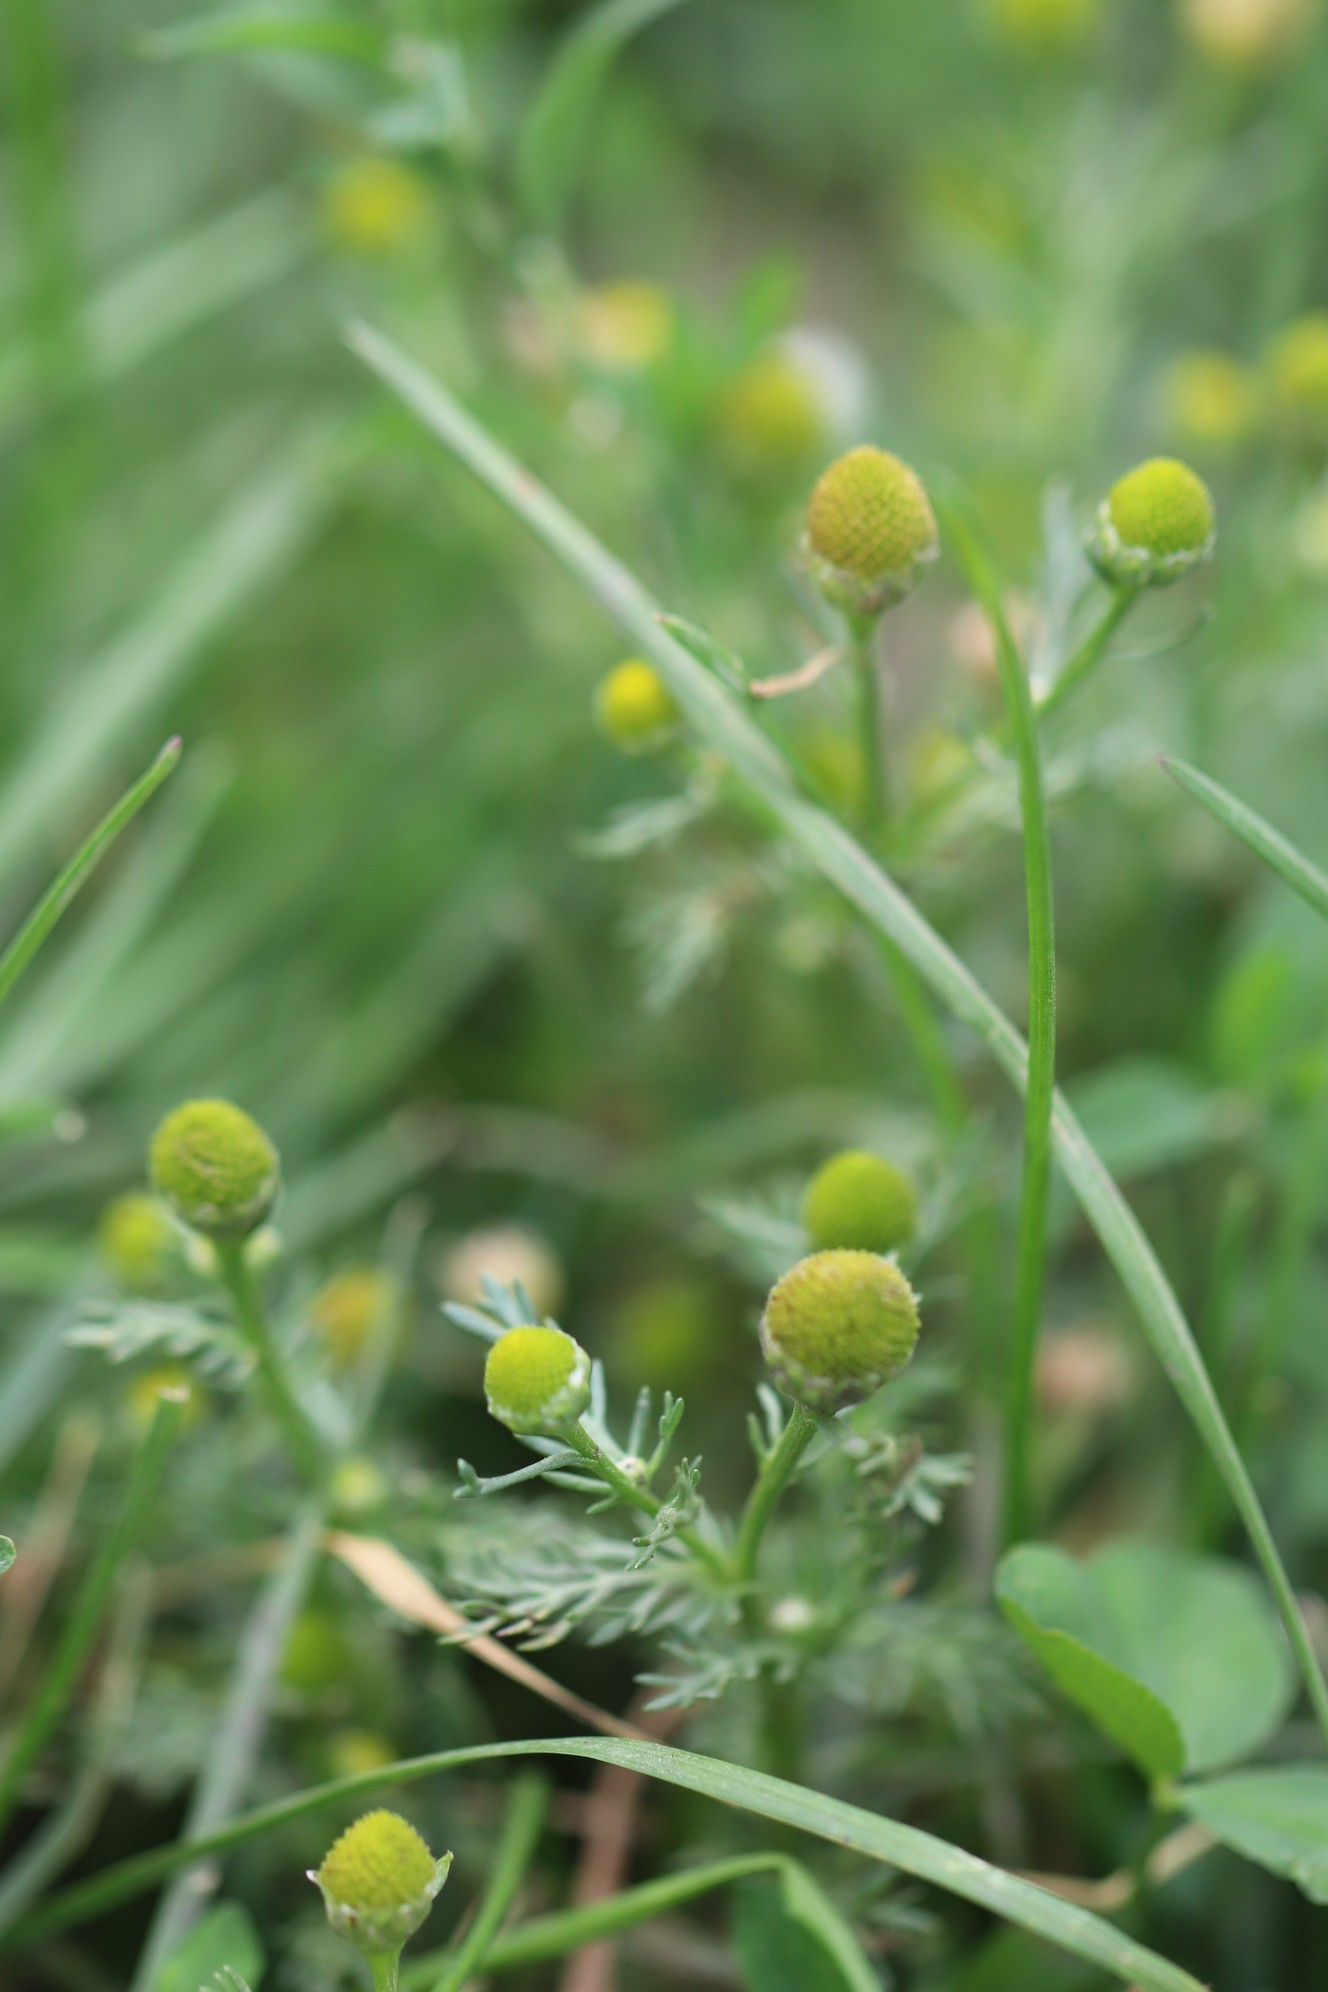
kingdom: Plantae
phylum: Tracheophyta
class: Magnoliopsida
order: Asterales
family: Asteraceae
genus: Matricaria
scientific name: Matricaria discoidea
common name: Disc mayweed
